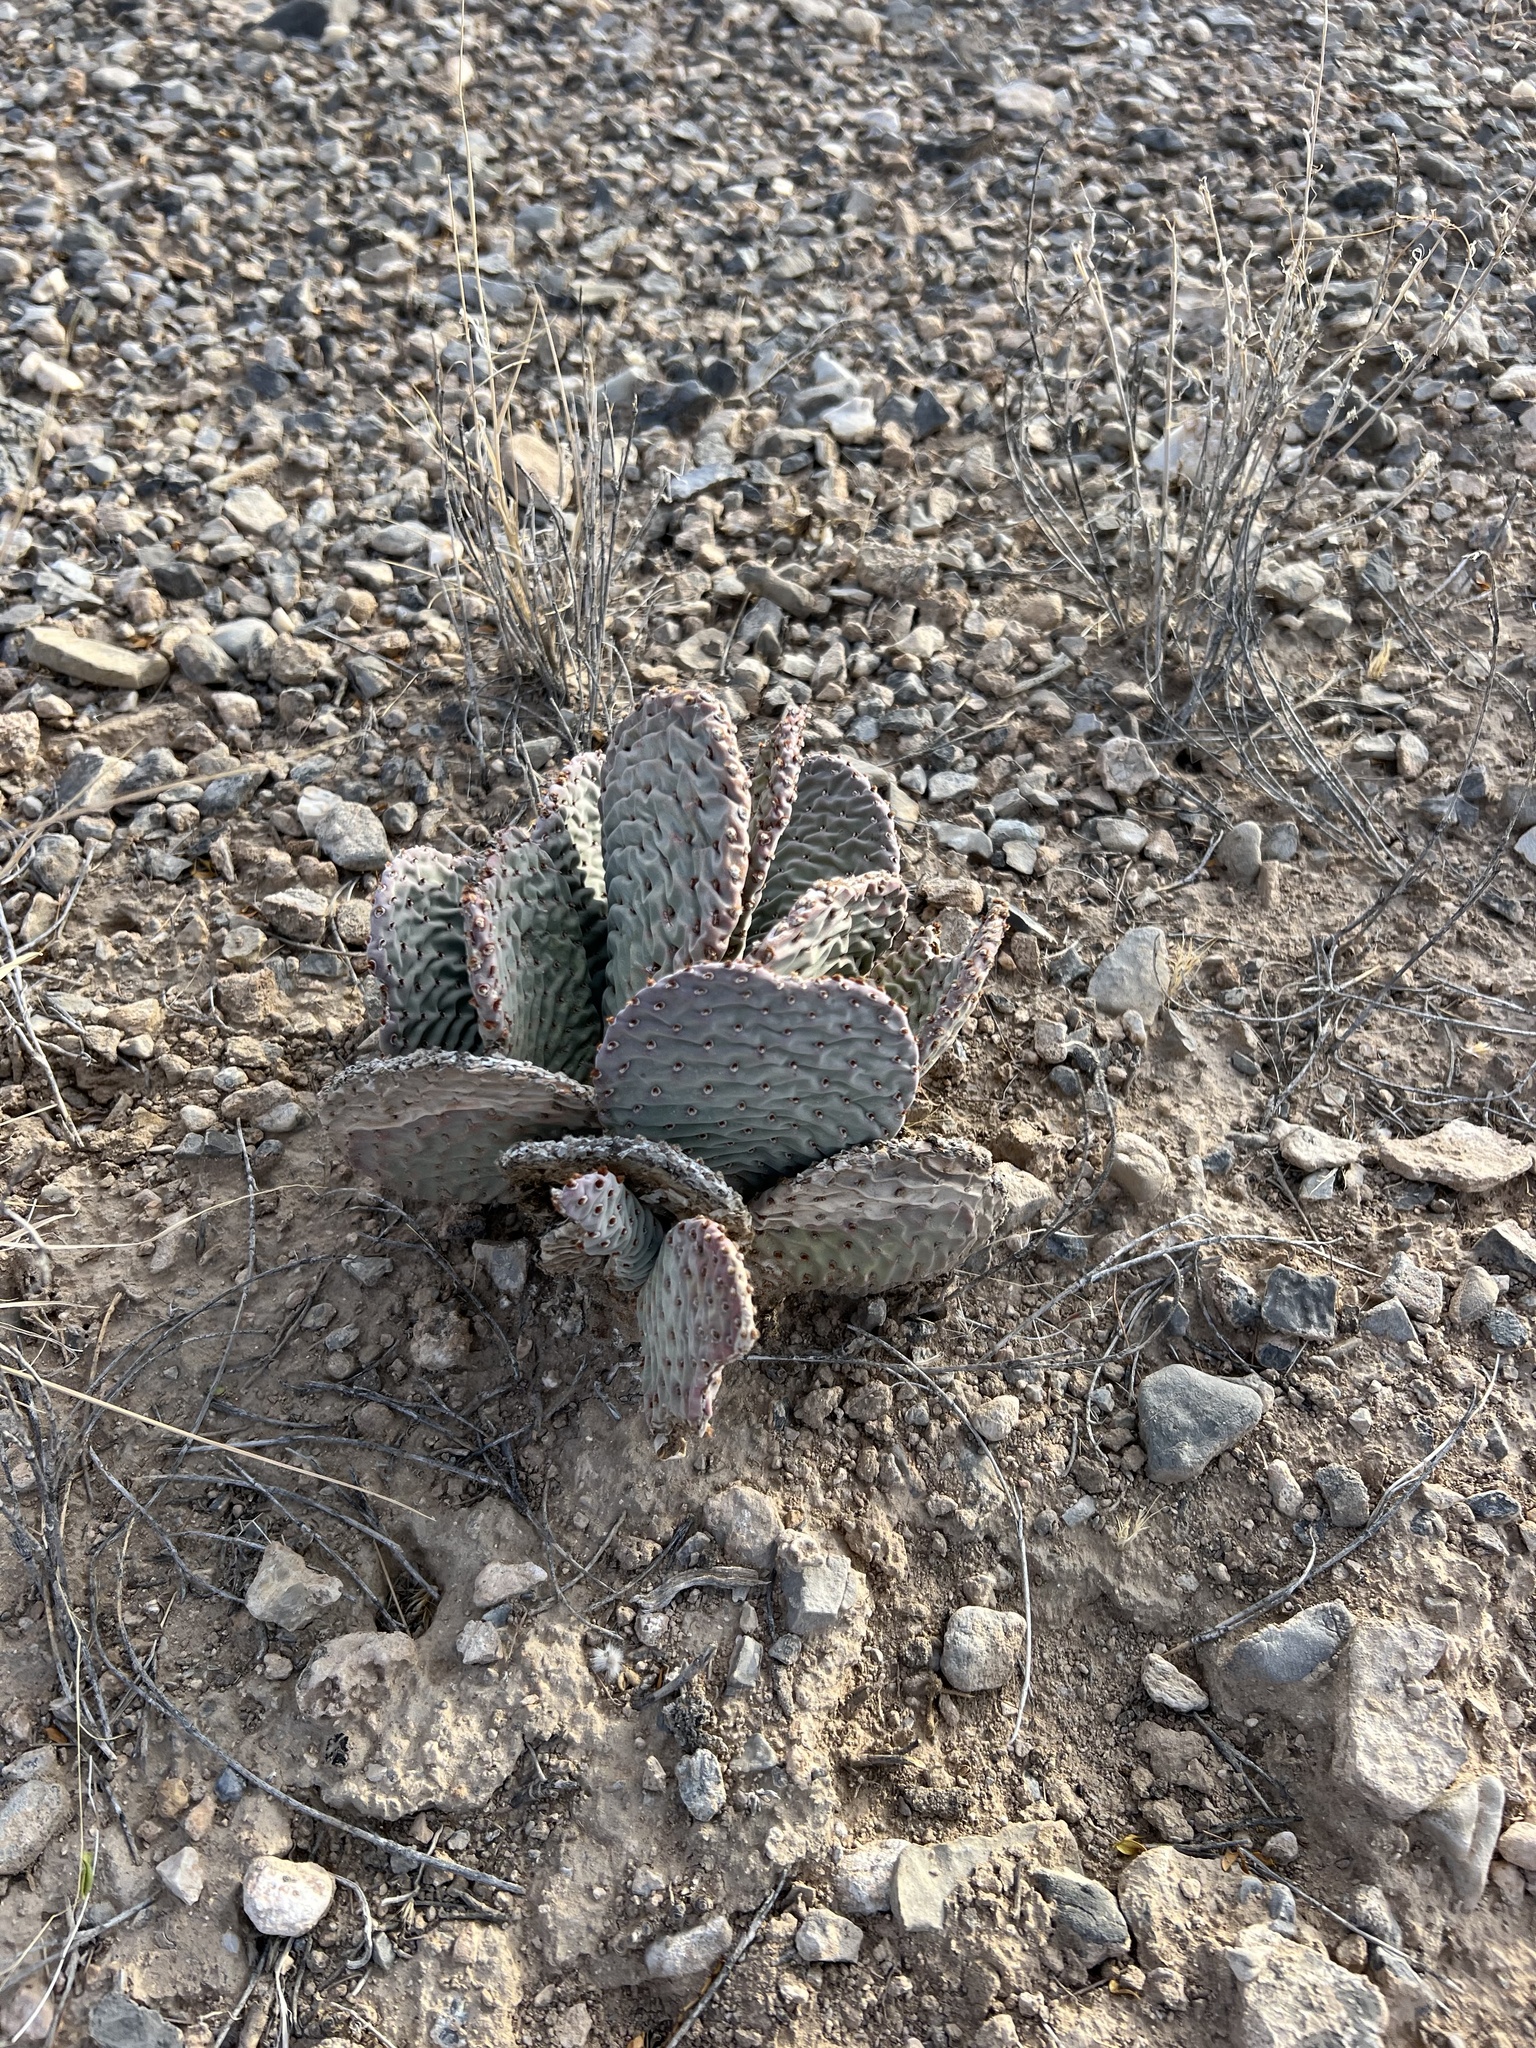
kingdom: Plantae
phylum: Tracheophyta
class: Magnoliopsida
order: Caryophyllales
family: Cactaceae
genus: Opuntia
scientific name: Opuntia basilaris
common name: Beavertail prickly-pear
